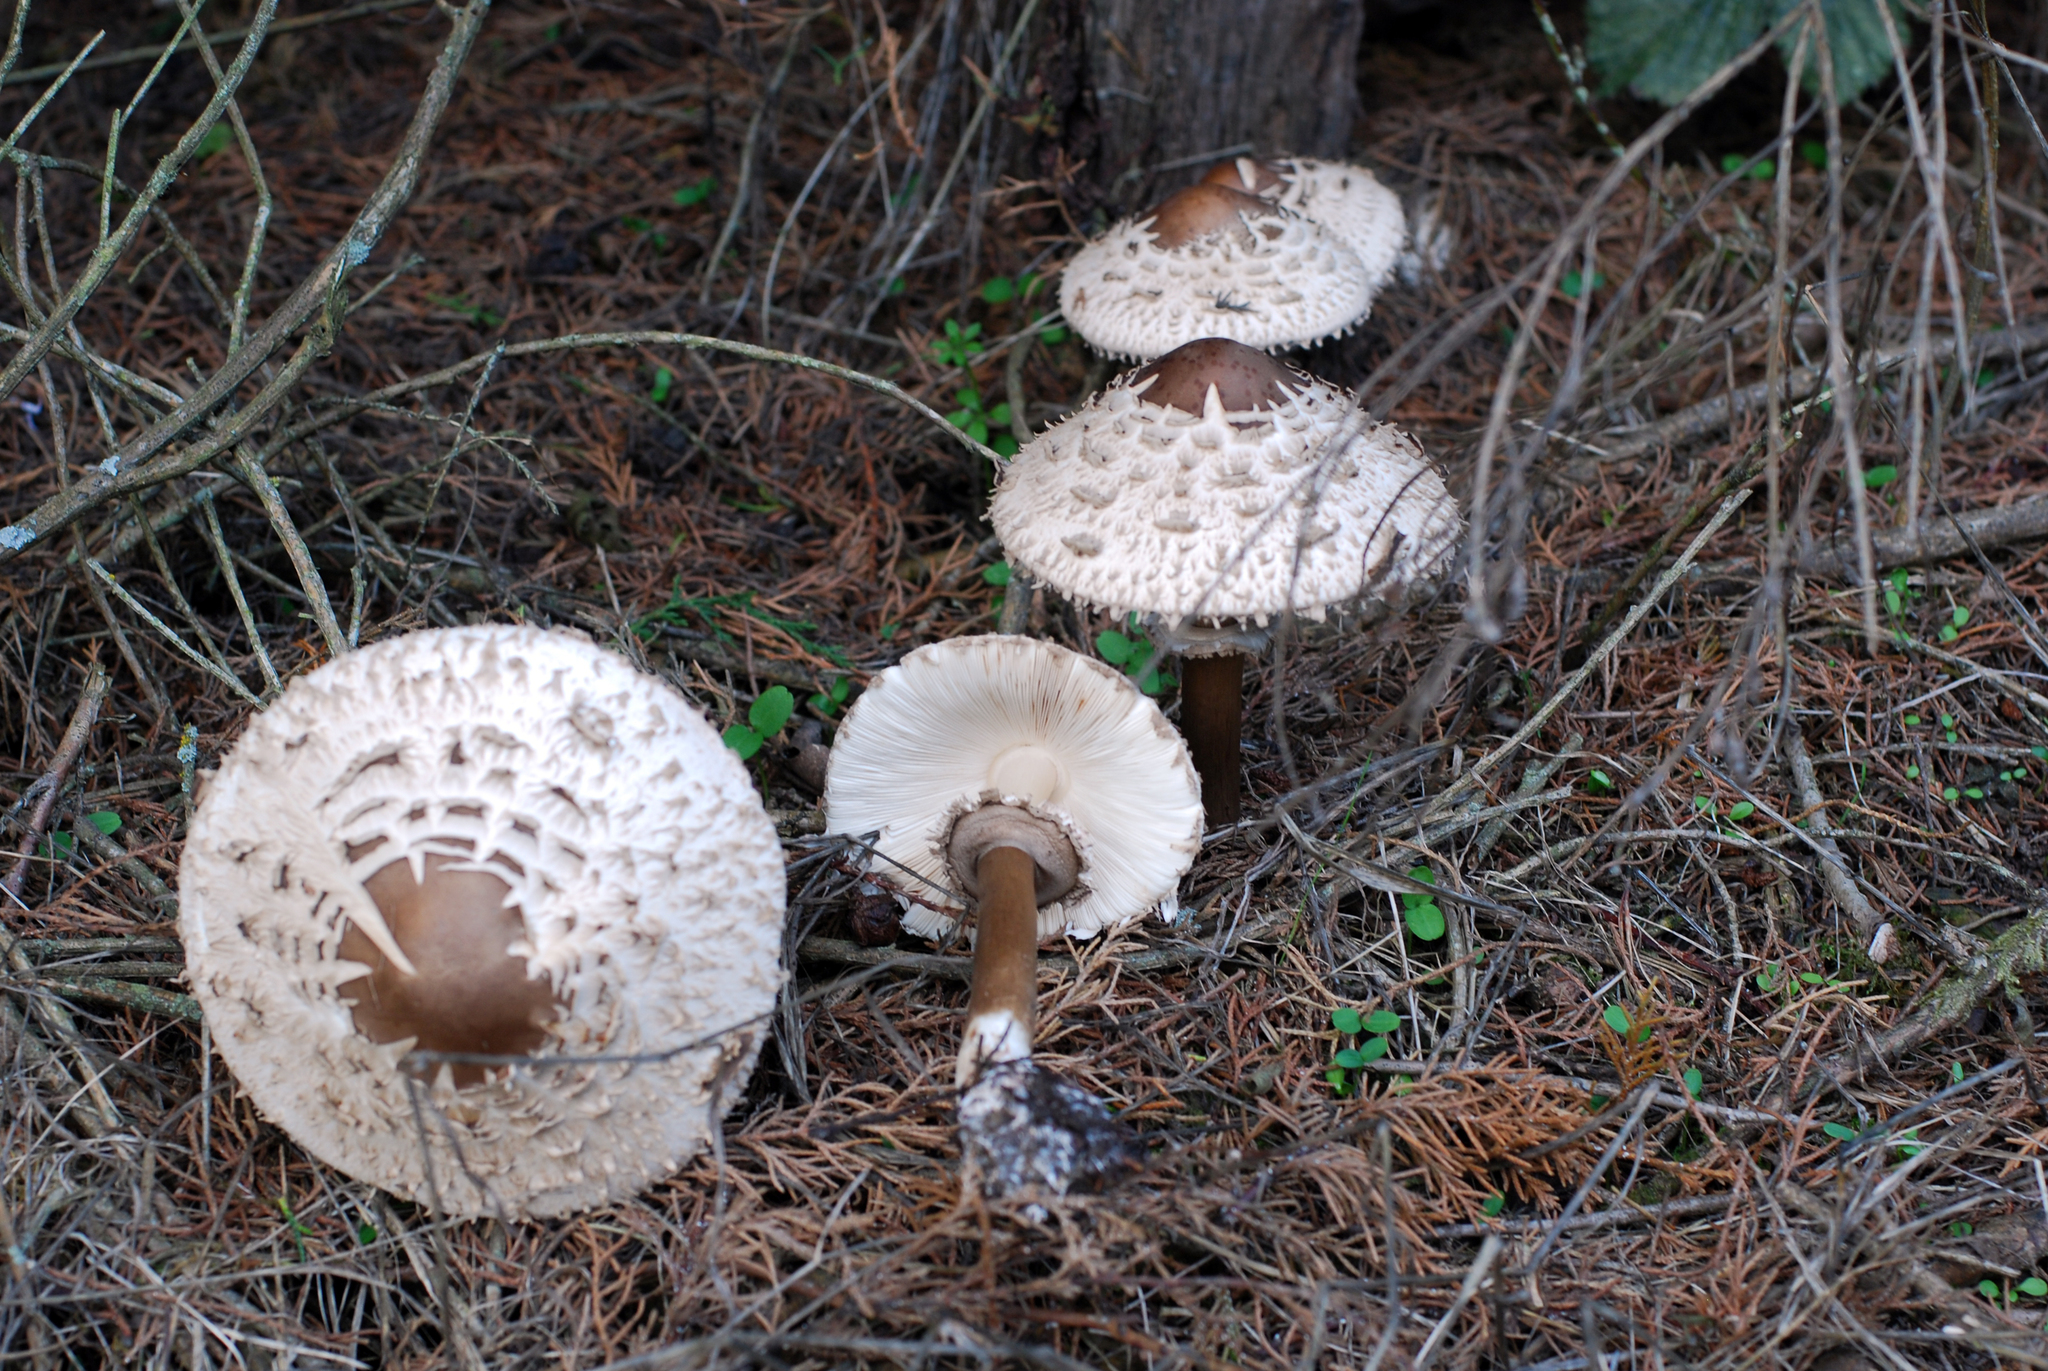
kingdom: Fungi
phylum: Basidiomycota
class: Agaricomycetes
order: Agaricales
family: Agaricaceae
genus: Chlorophyllum
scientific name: Chlorophyllum rhacodes
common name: Shaggy parasol
